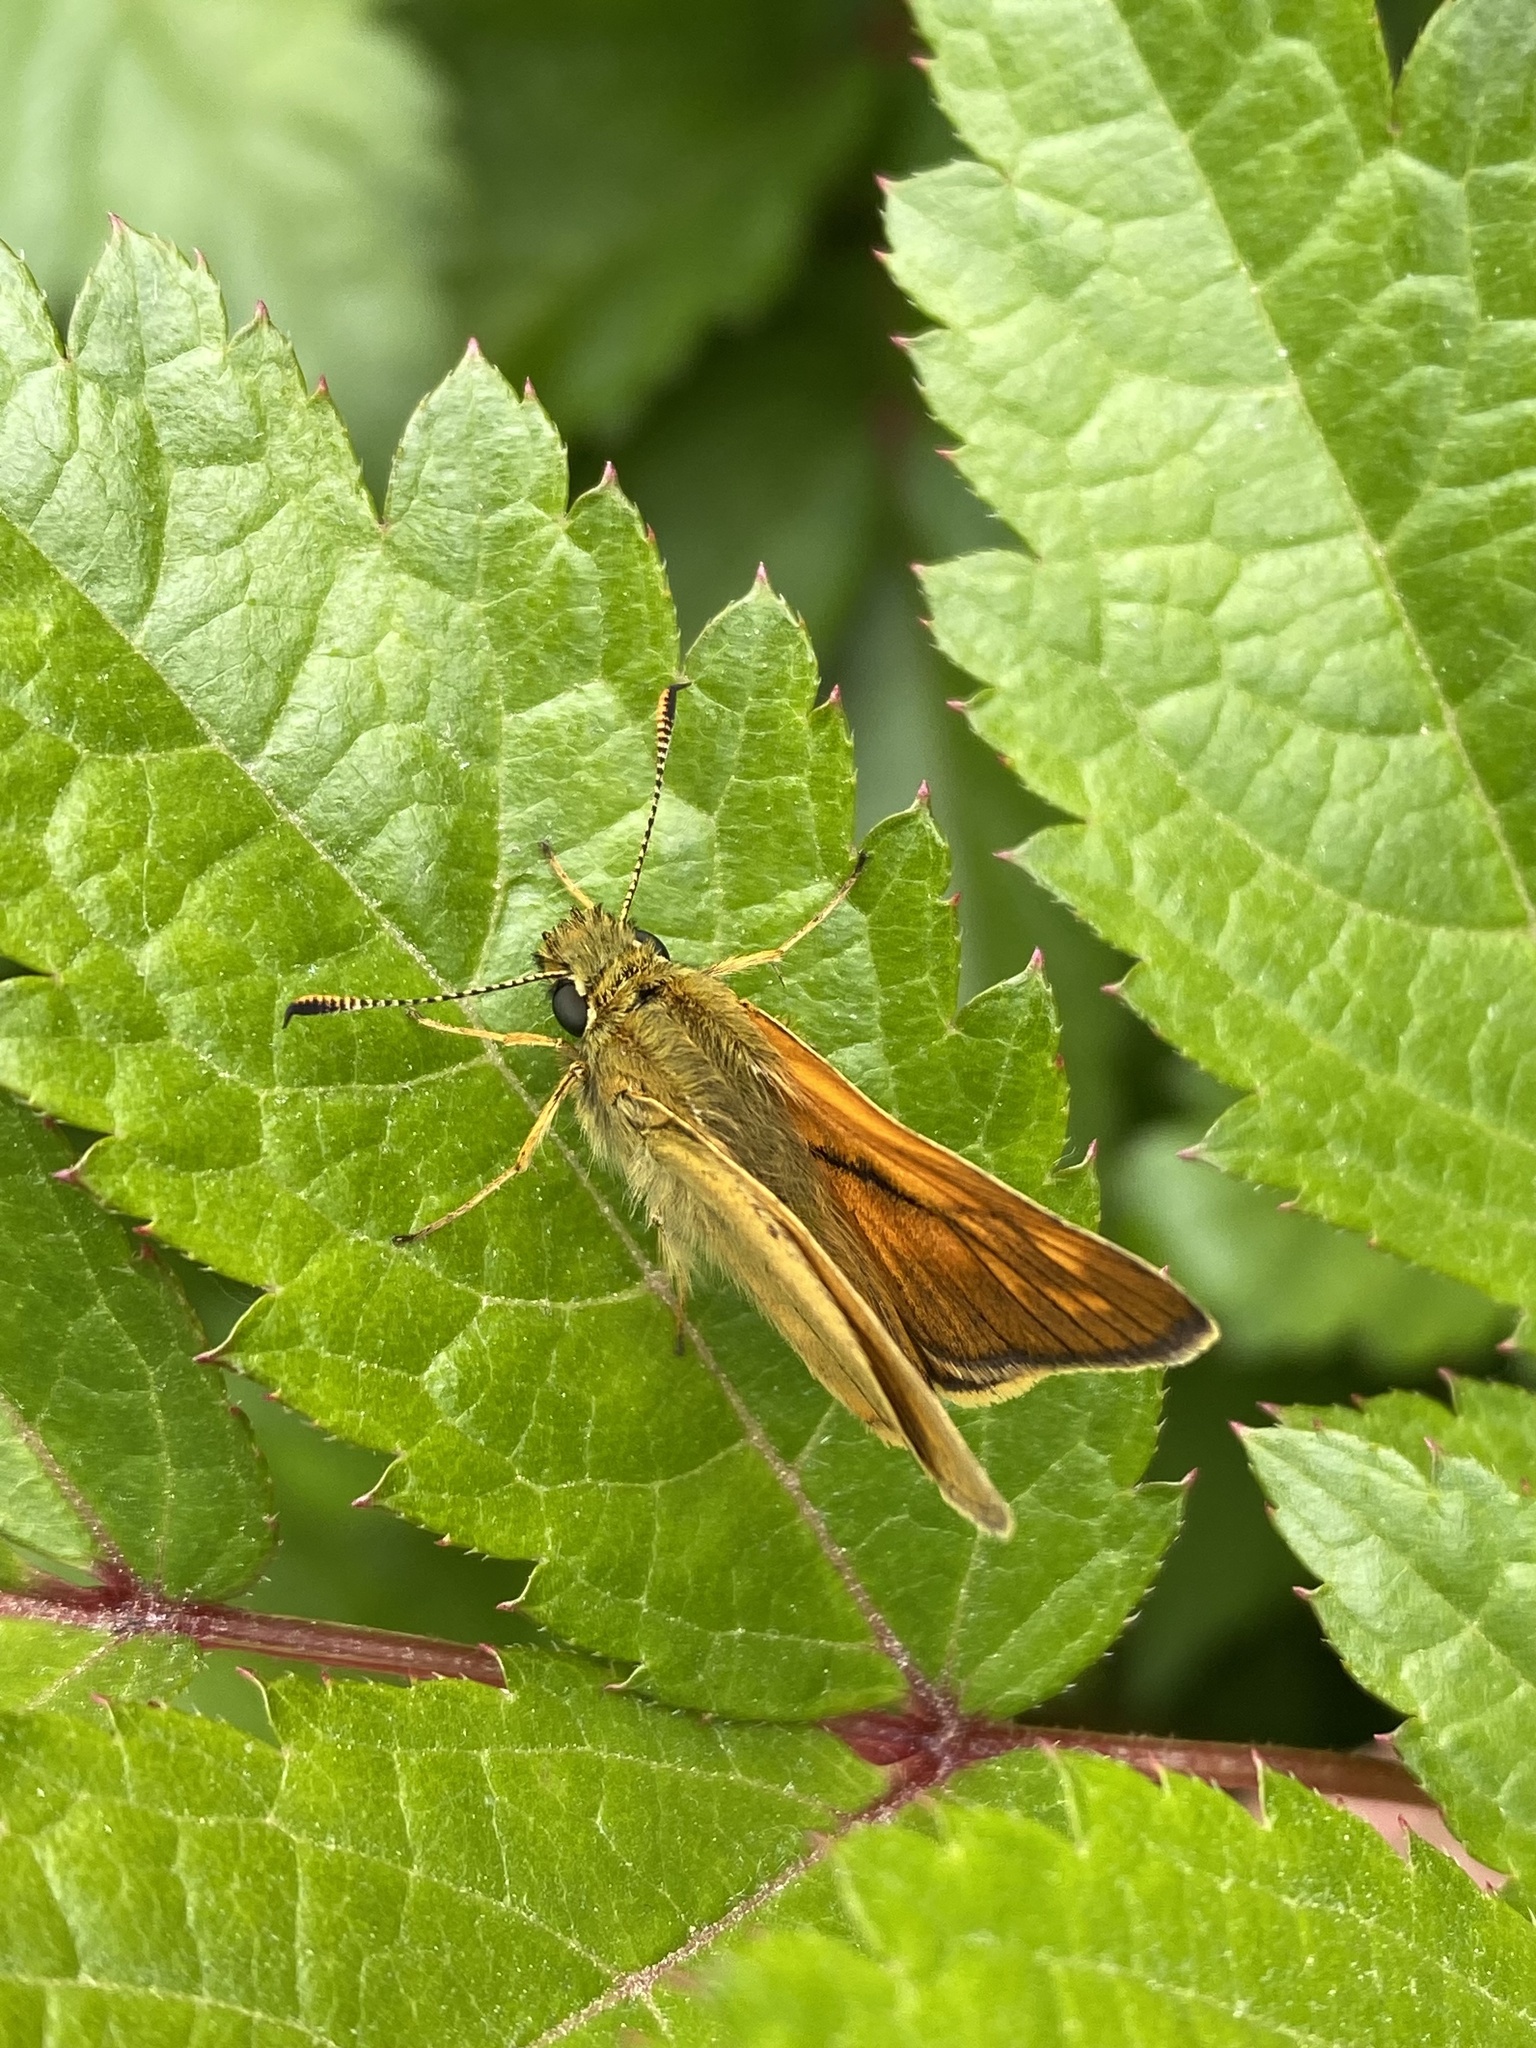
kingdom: Animalia
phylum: Arthropoda
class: Insecta
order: Lepidoptera
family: Hesperiidae
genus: Ochlodes
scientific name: Ochlodes venata
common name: Large skipper
